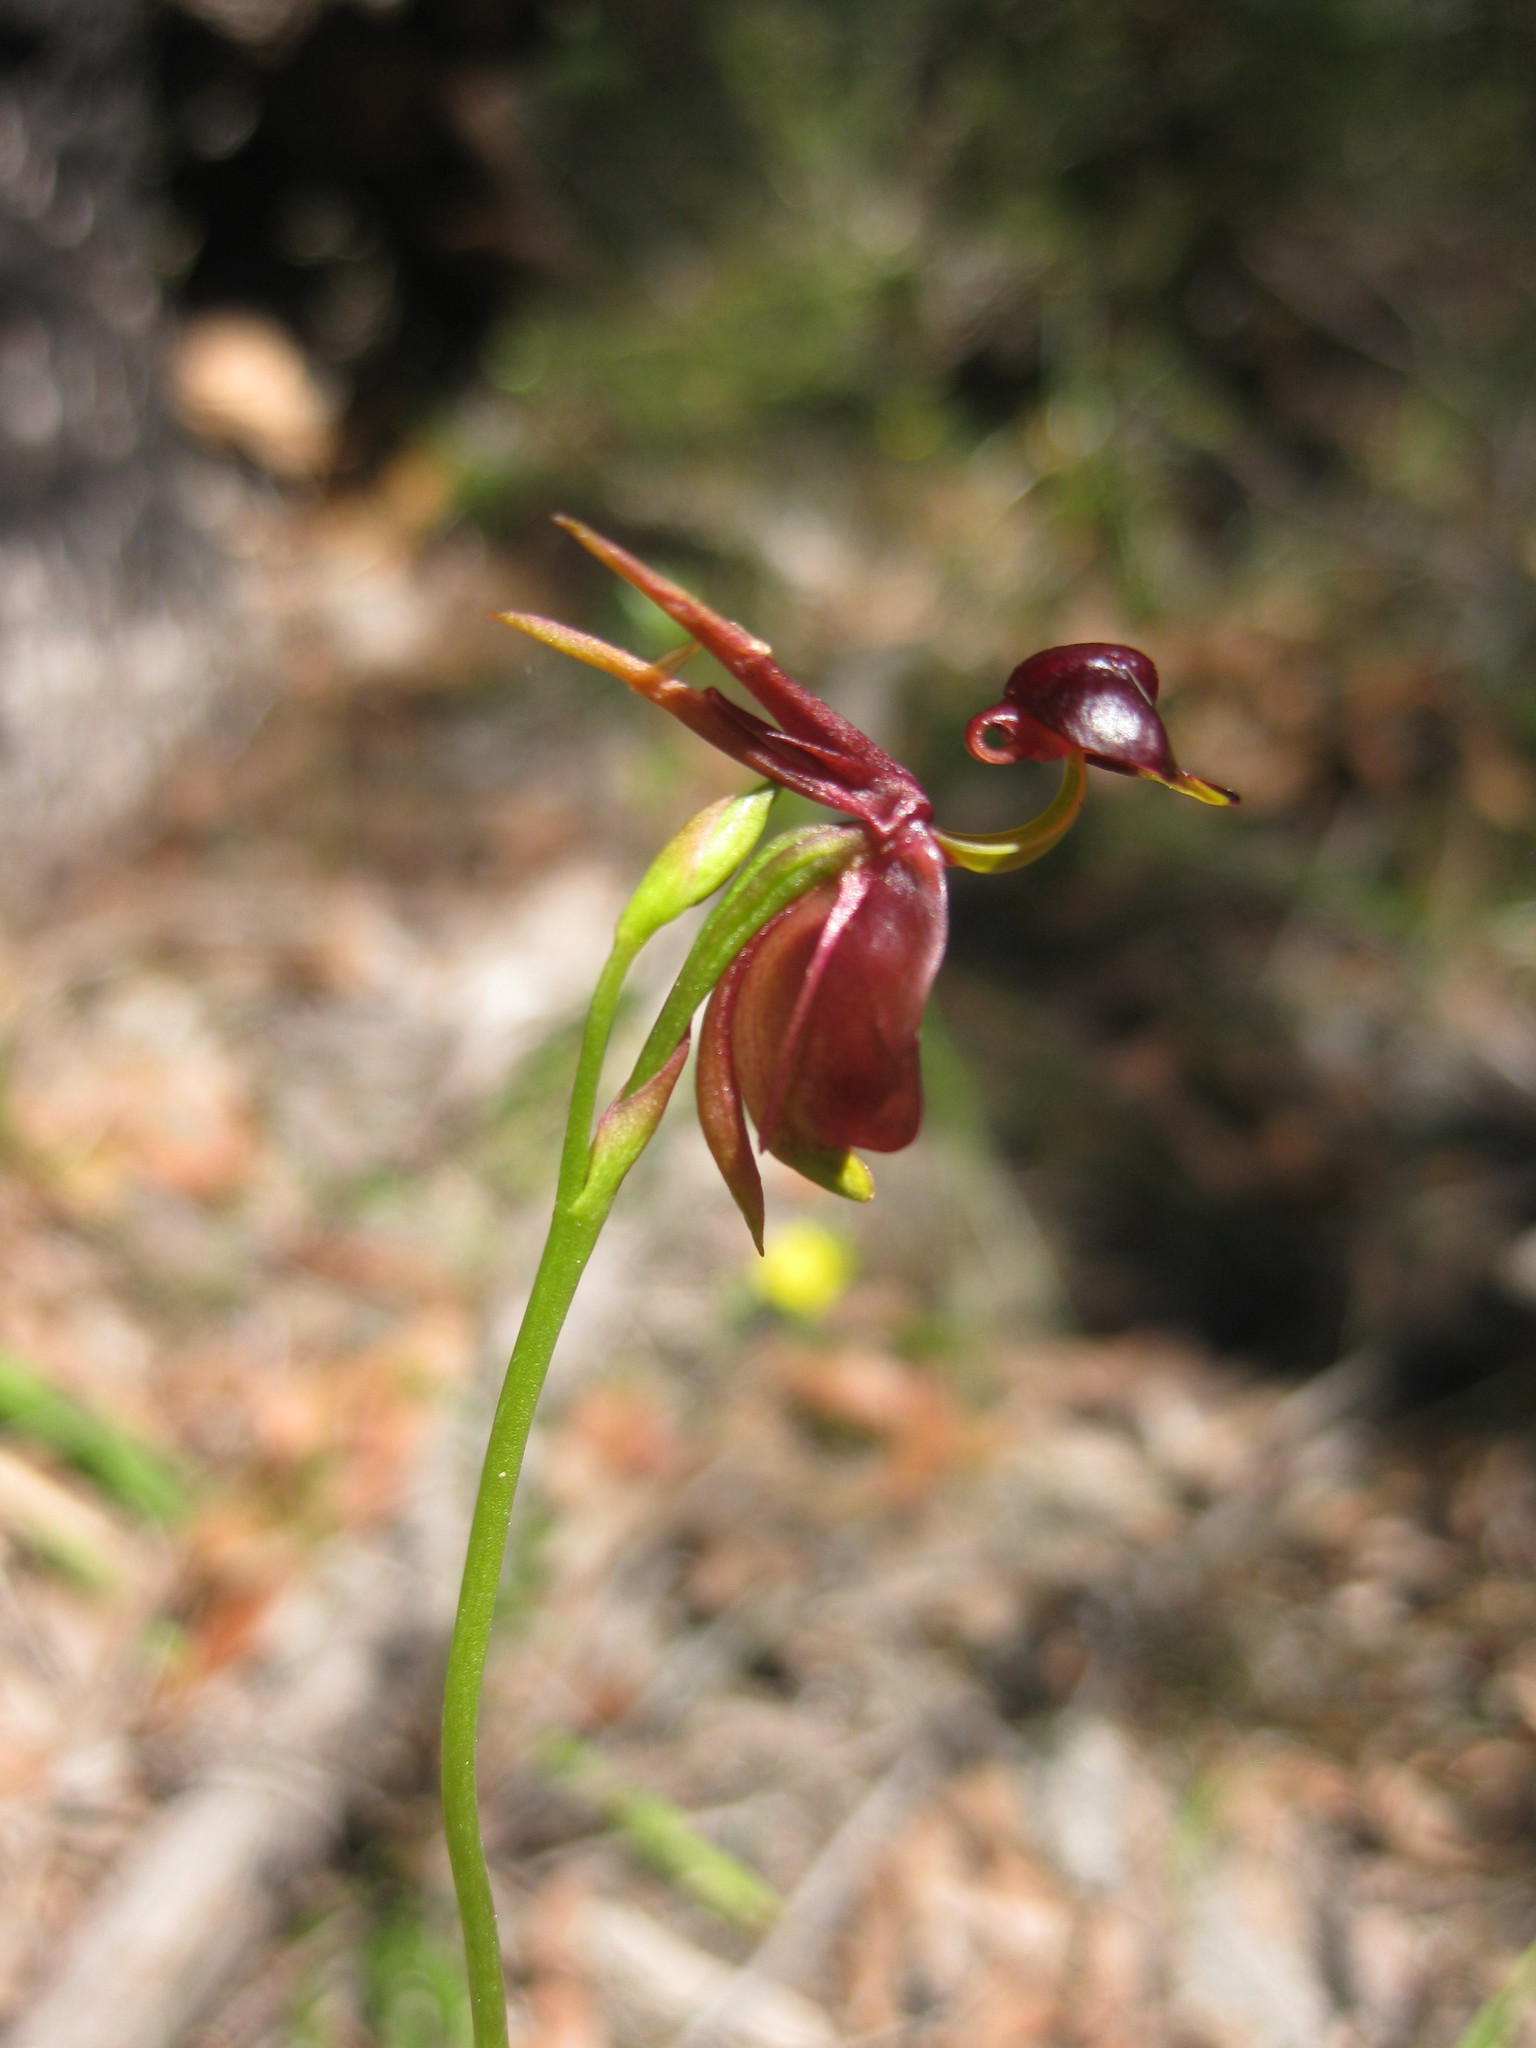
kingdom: Plantae
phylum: Tracheophyta
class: Liliopsida
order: Asparagales
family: Orchidaceae
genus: Caleana
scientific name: Caleana major
